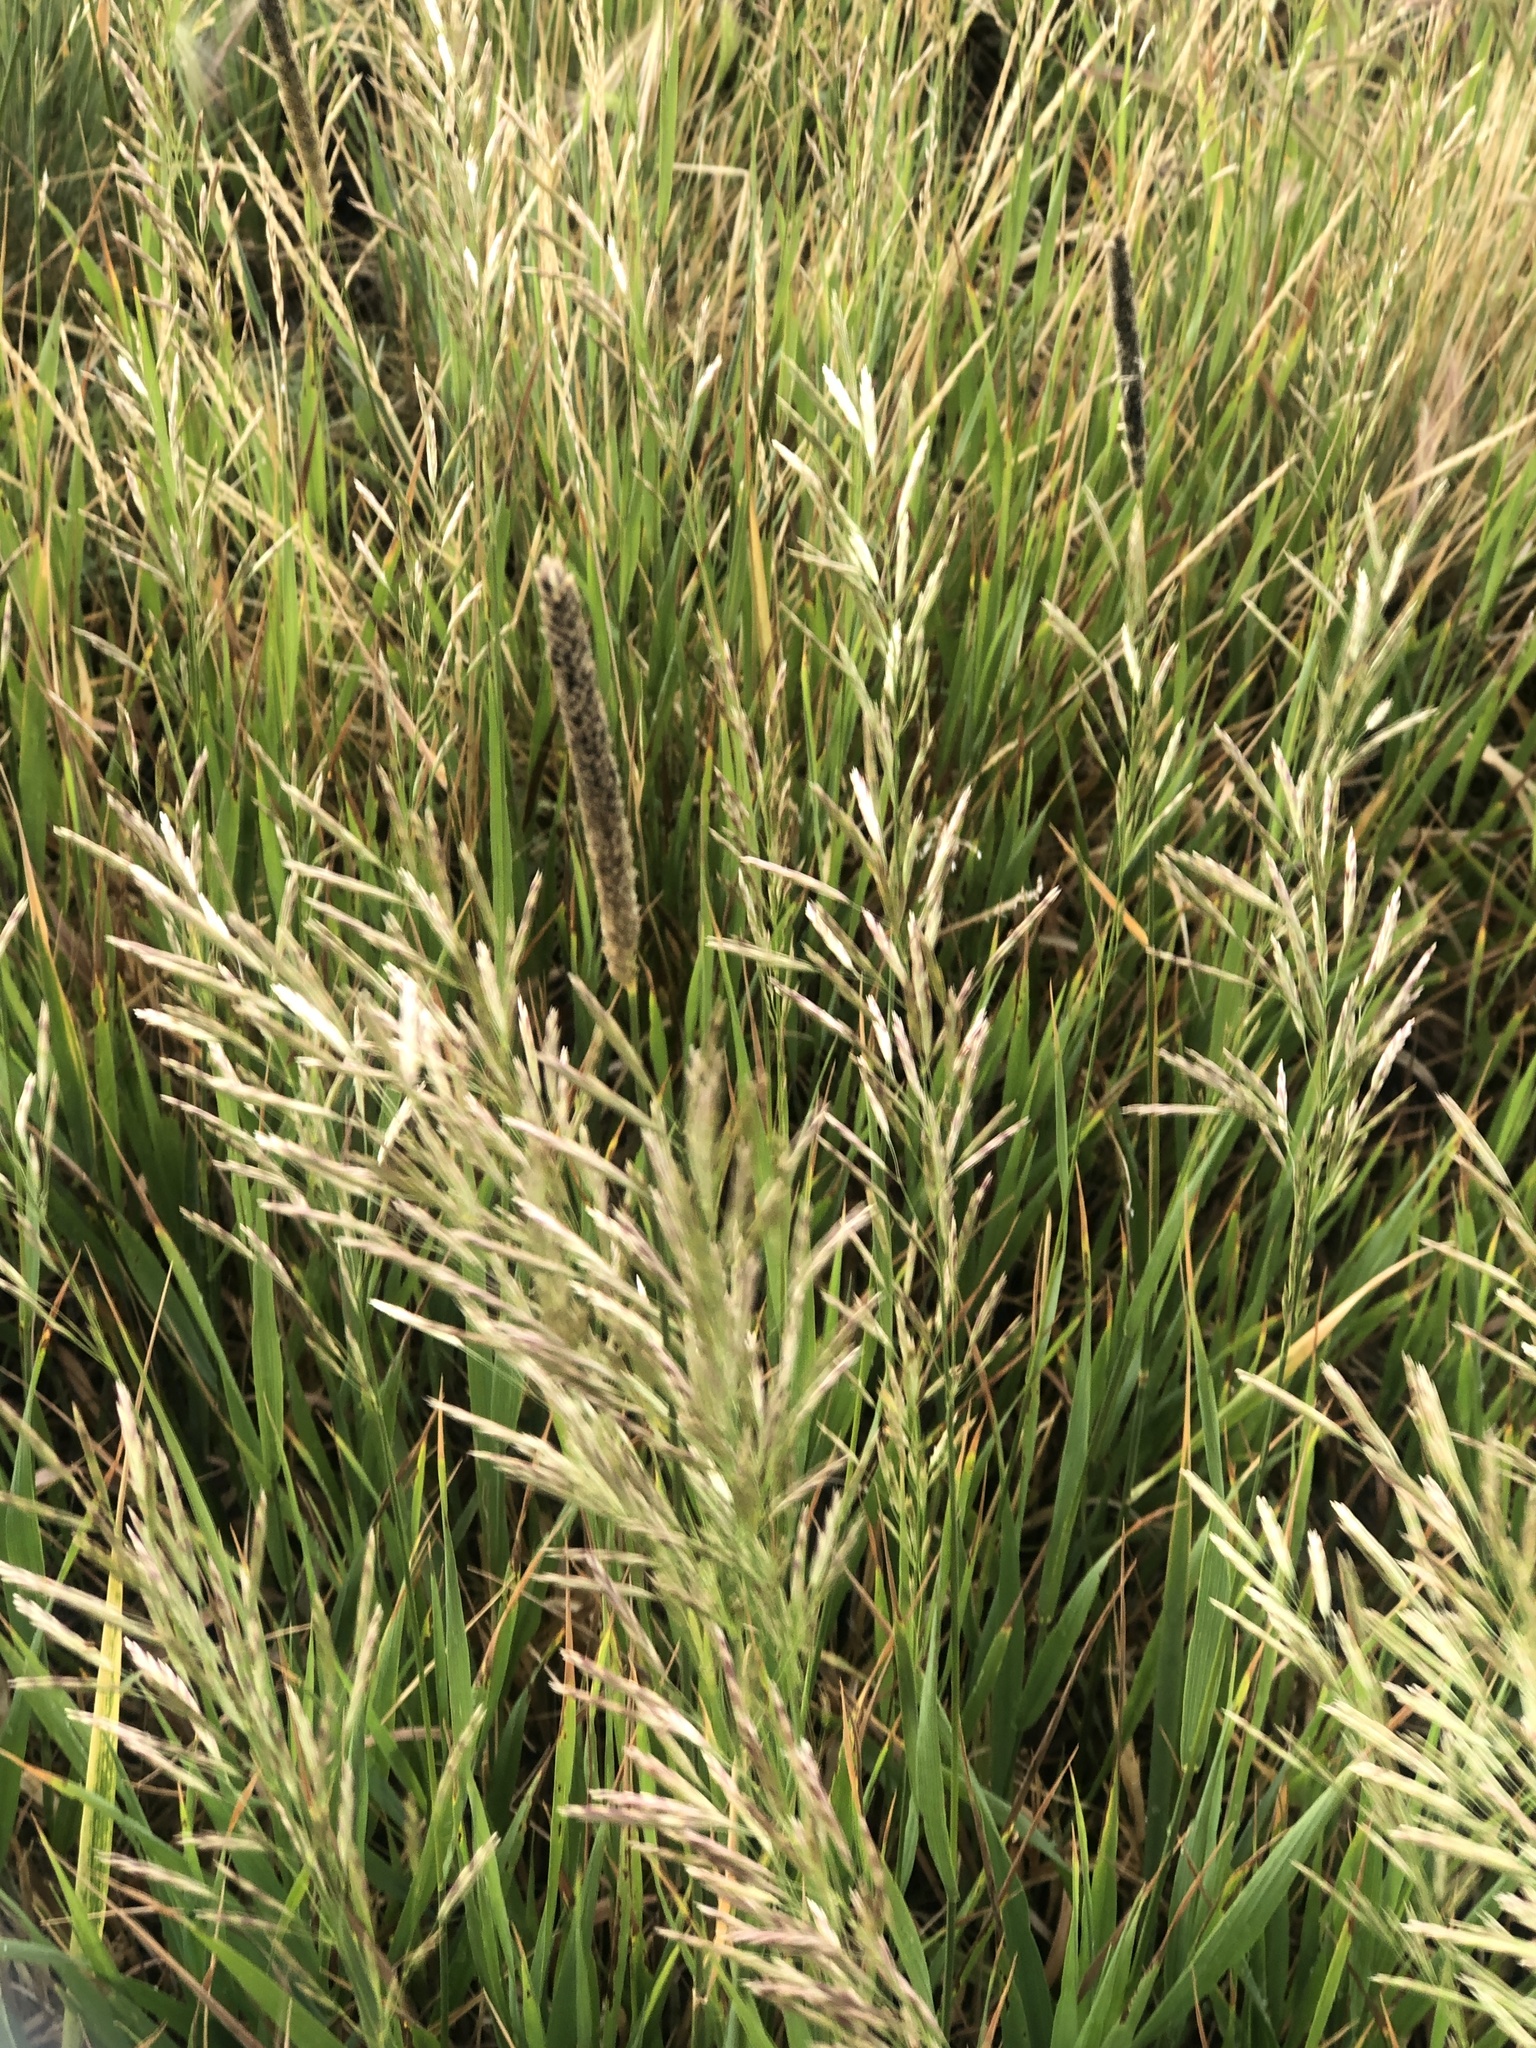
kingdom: Plantae
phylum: Tracheophyta
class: Liliopsida
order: Poales
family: Poaceae
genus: Bromus
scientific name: Bromus inermis
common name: Smooth brome
